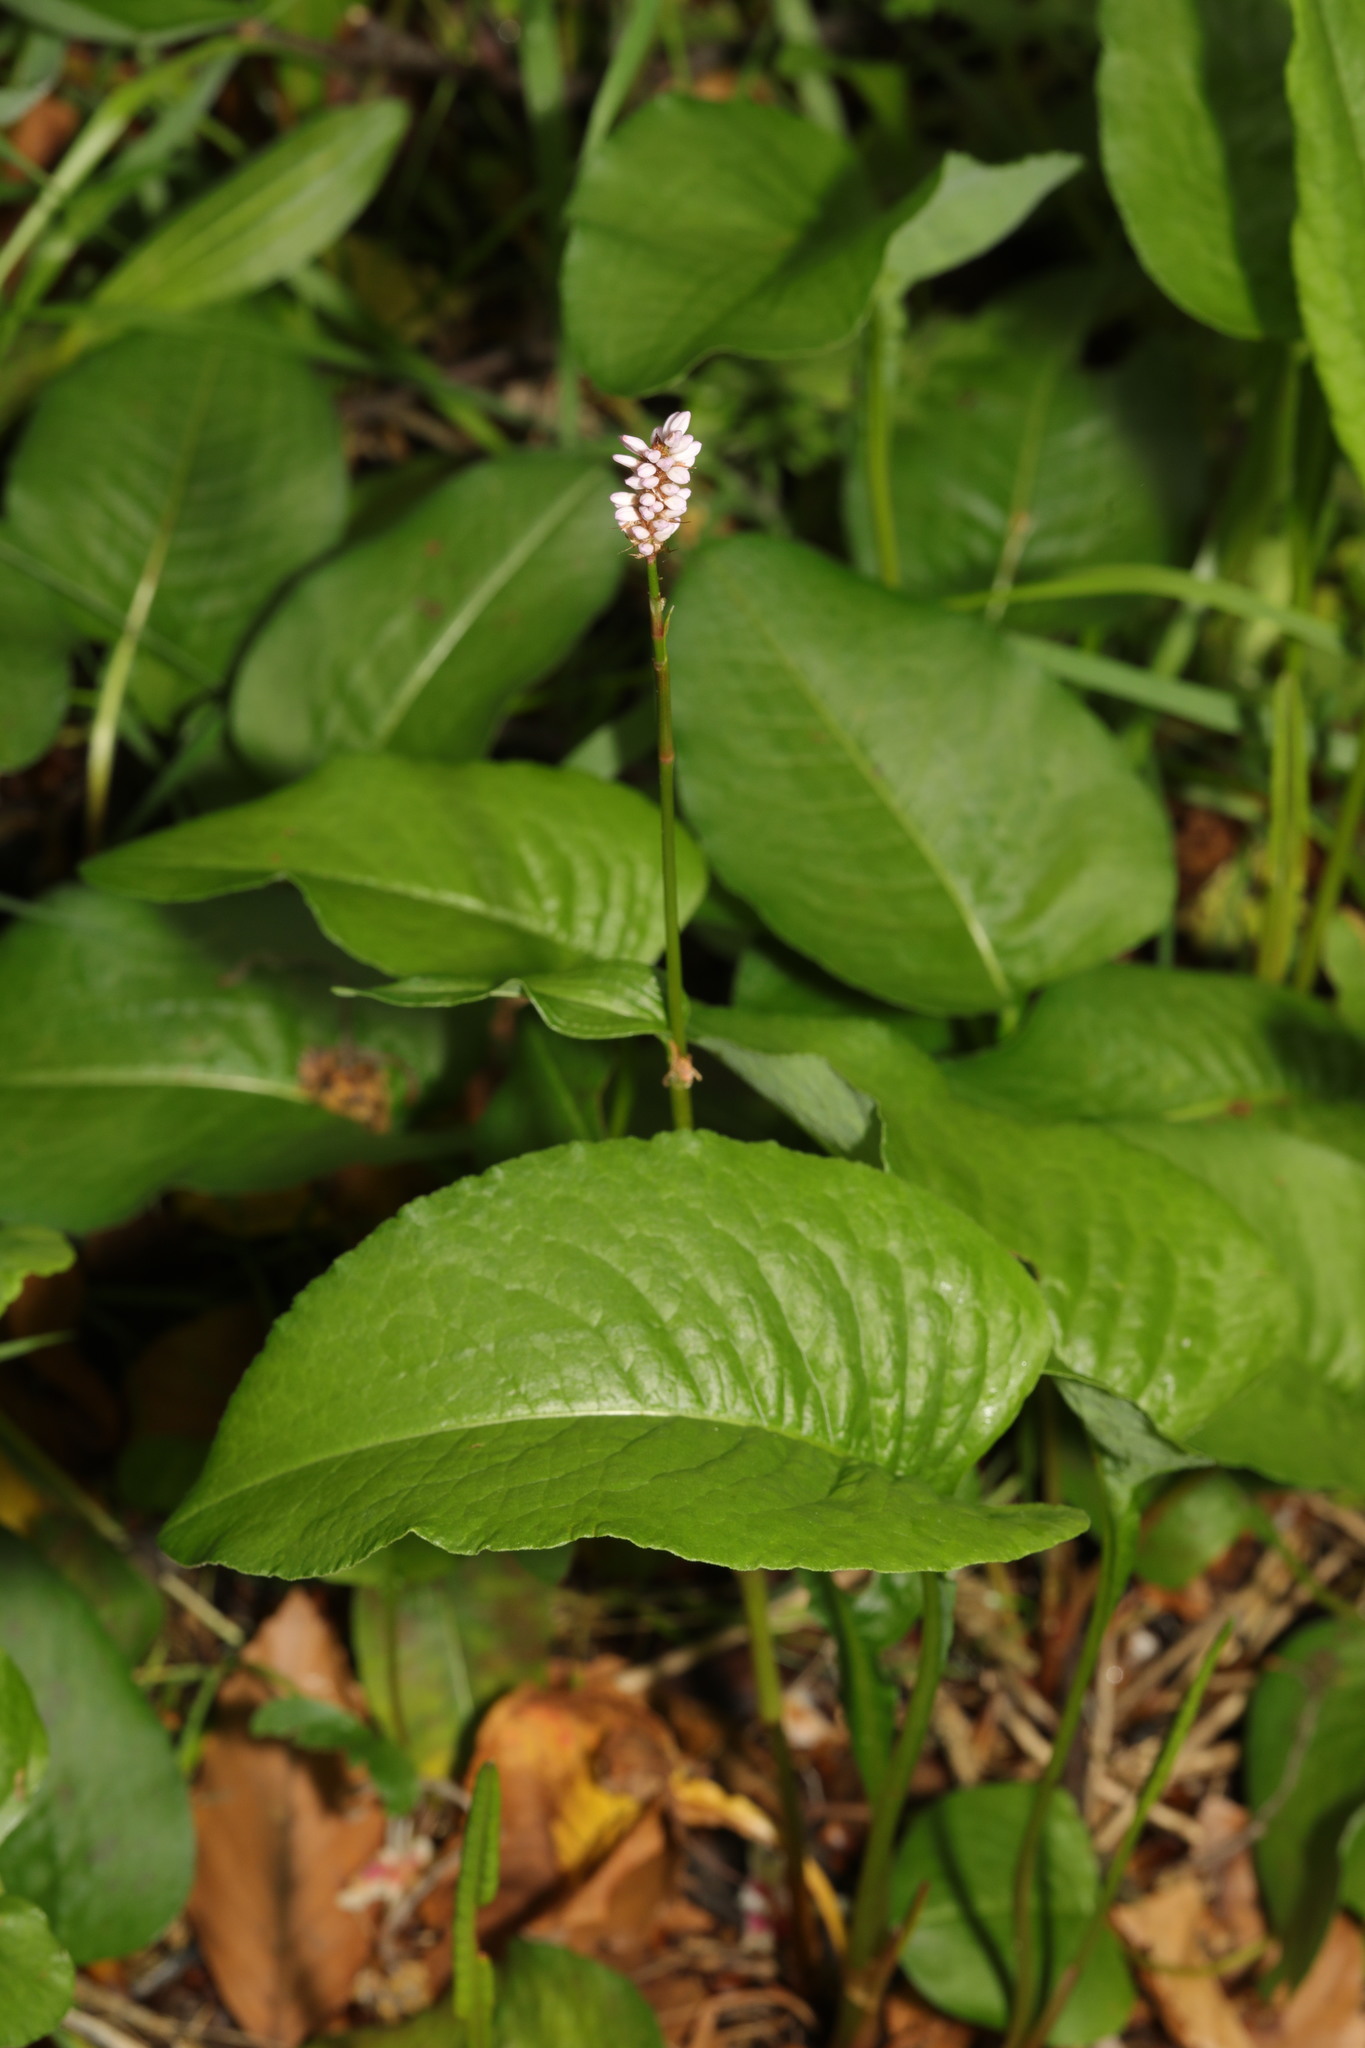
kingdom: Plantae
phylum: Tracheophyta
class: Magnoliopsida
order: Caryophyllales
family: Polygonaceae
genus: Bistorta
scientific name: Bistorta officinalis
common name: Common bistort
